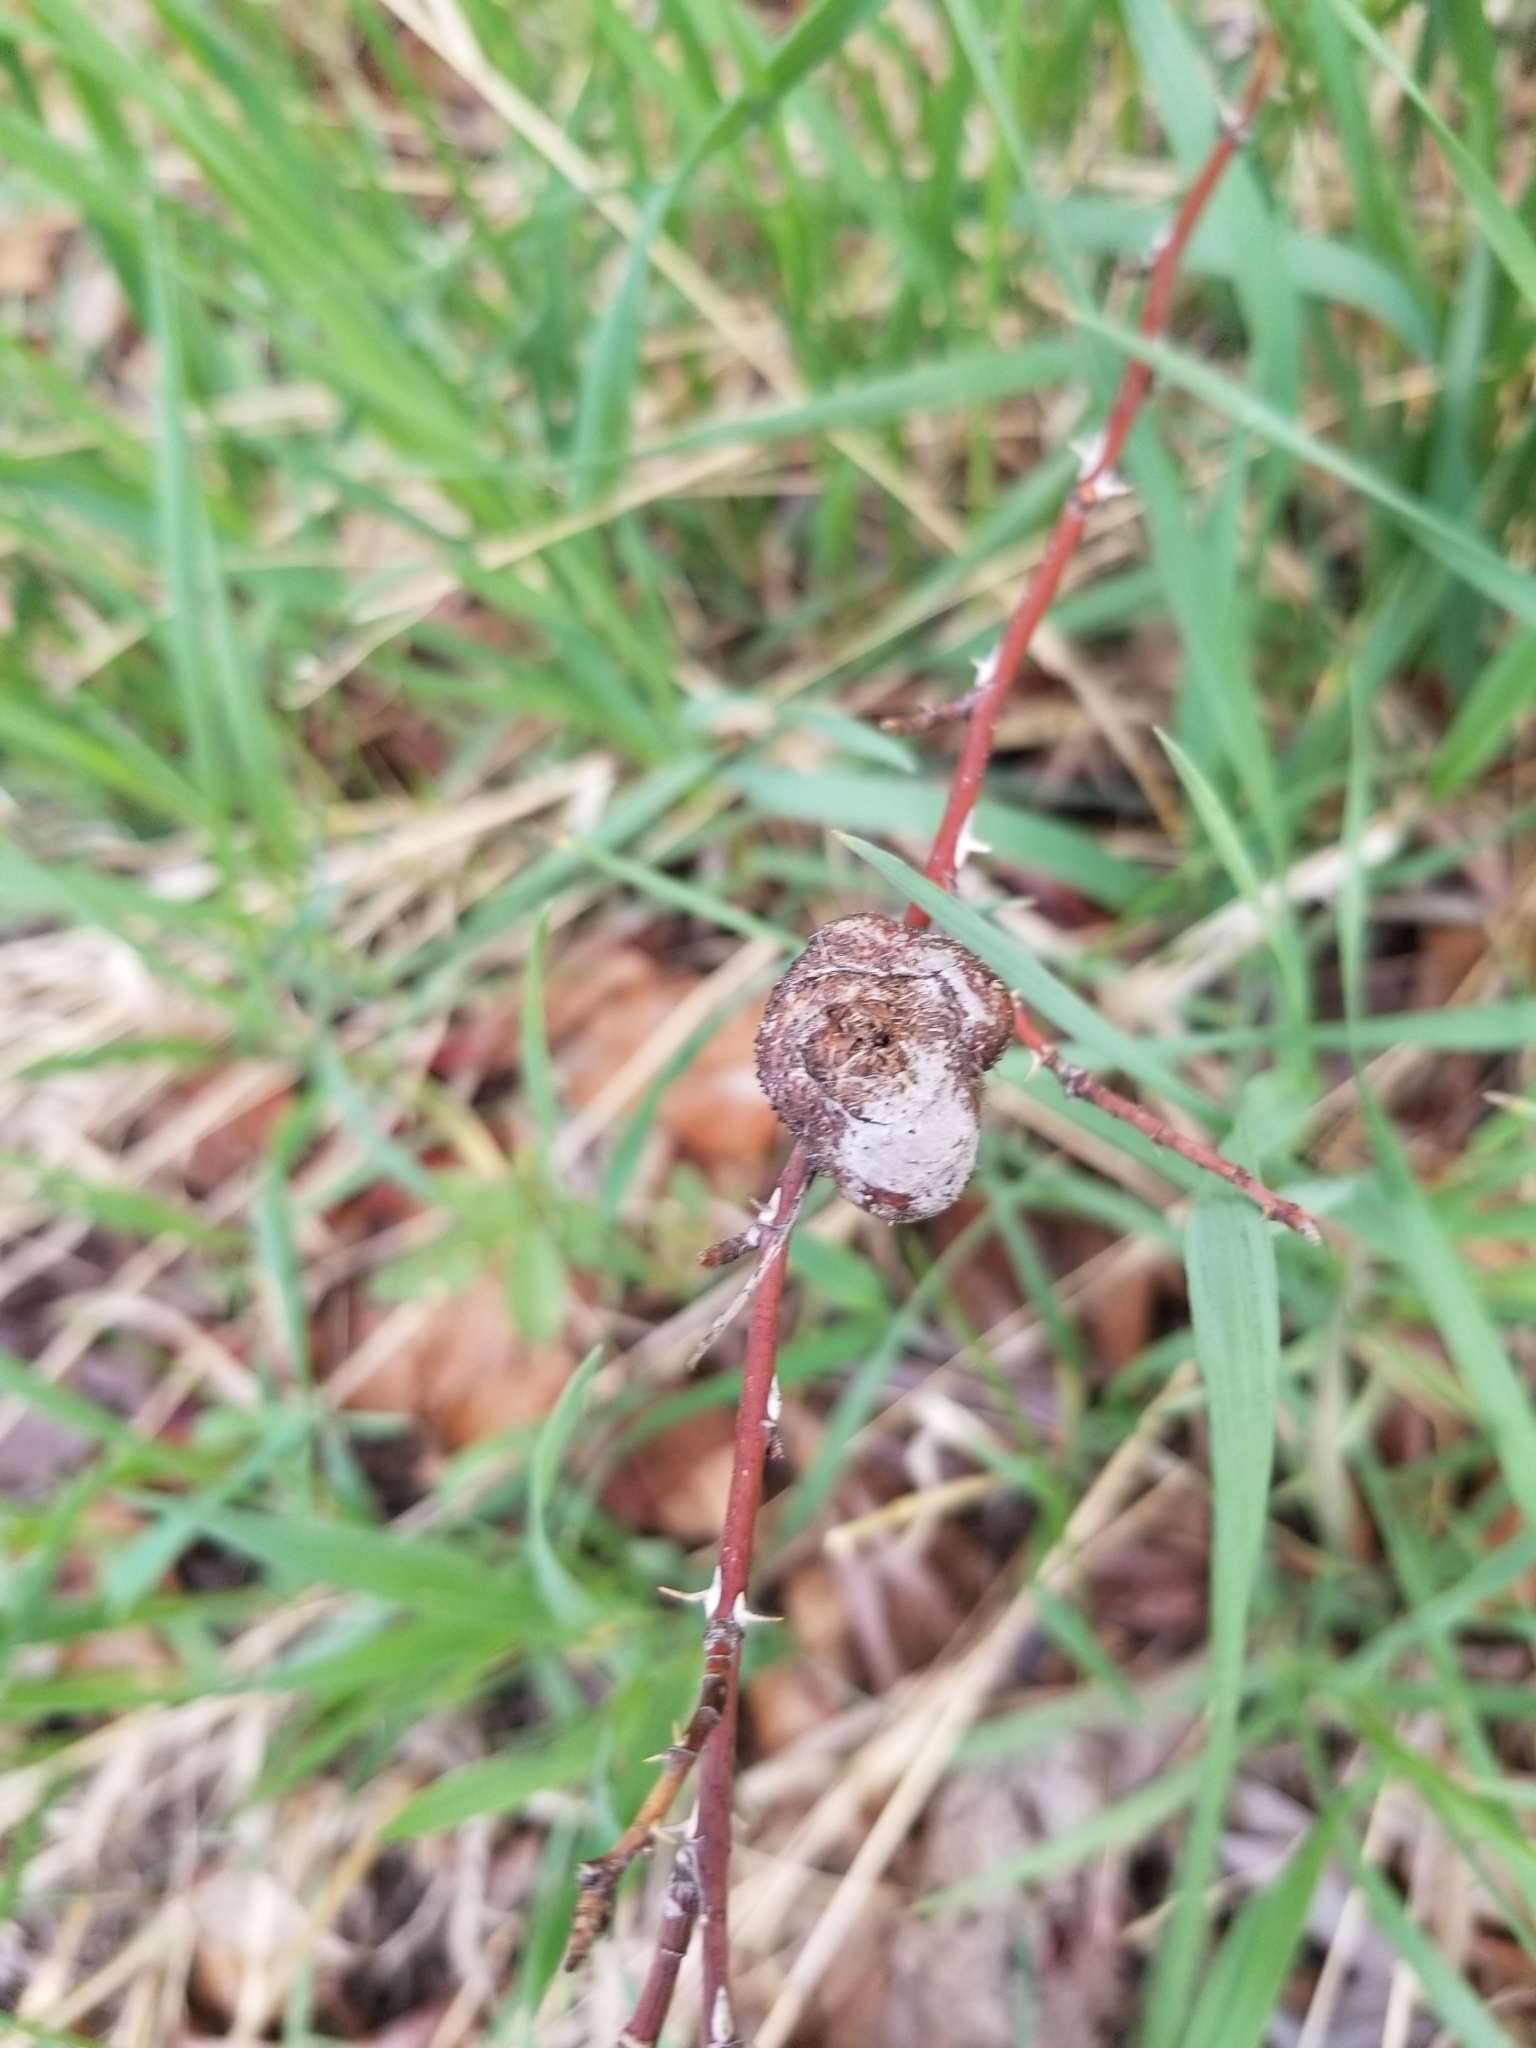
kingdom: Animalia
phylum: Arthropoda
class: Insecta
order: Hymenoptera
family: Cynipidae
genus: Diplolepis
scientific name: Diplolepis spinosa
